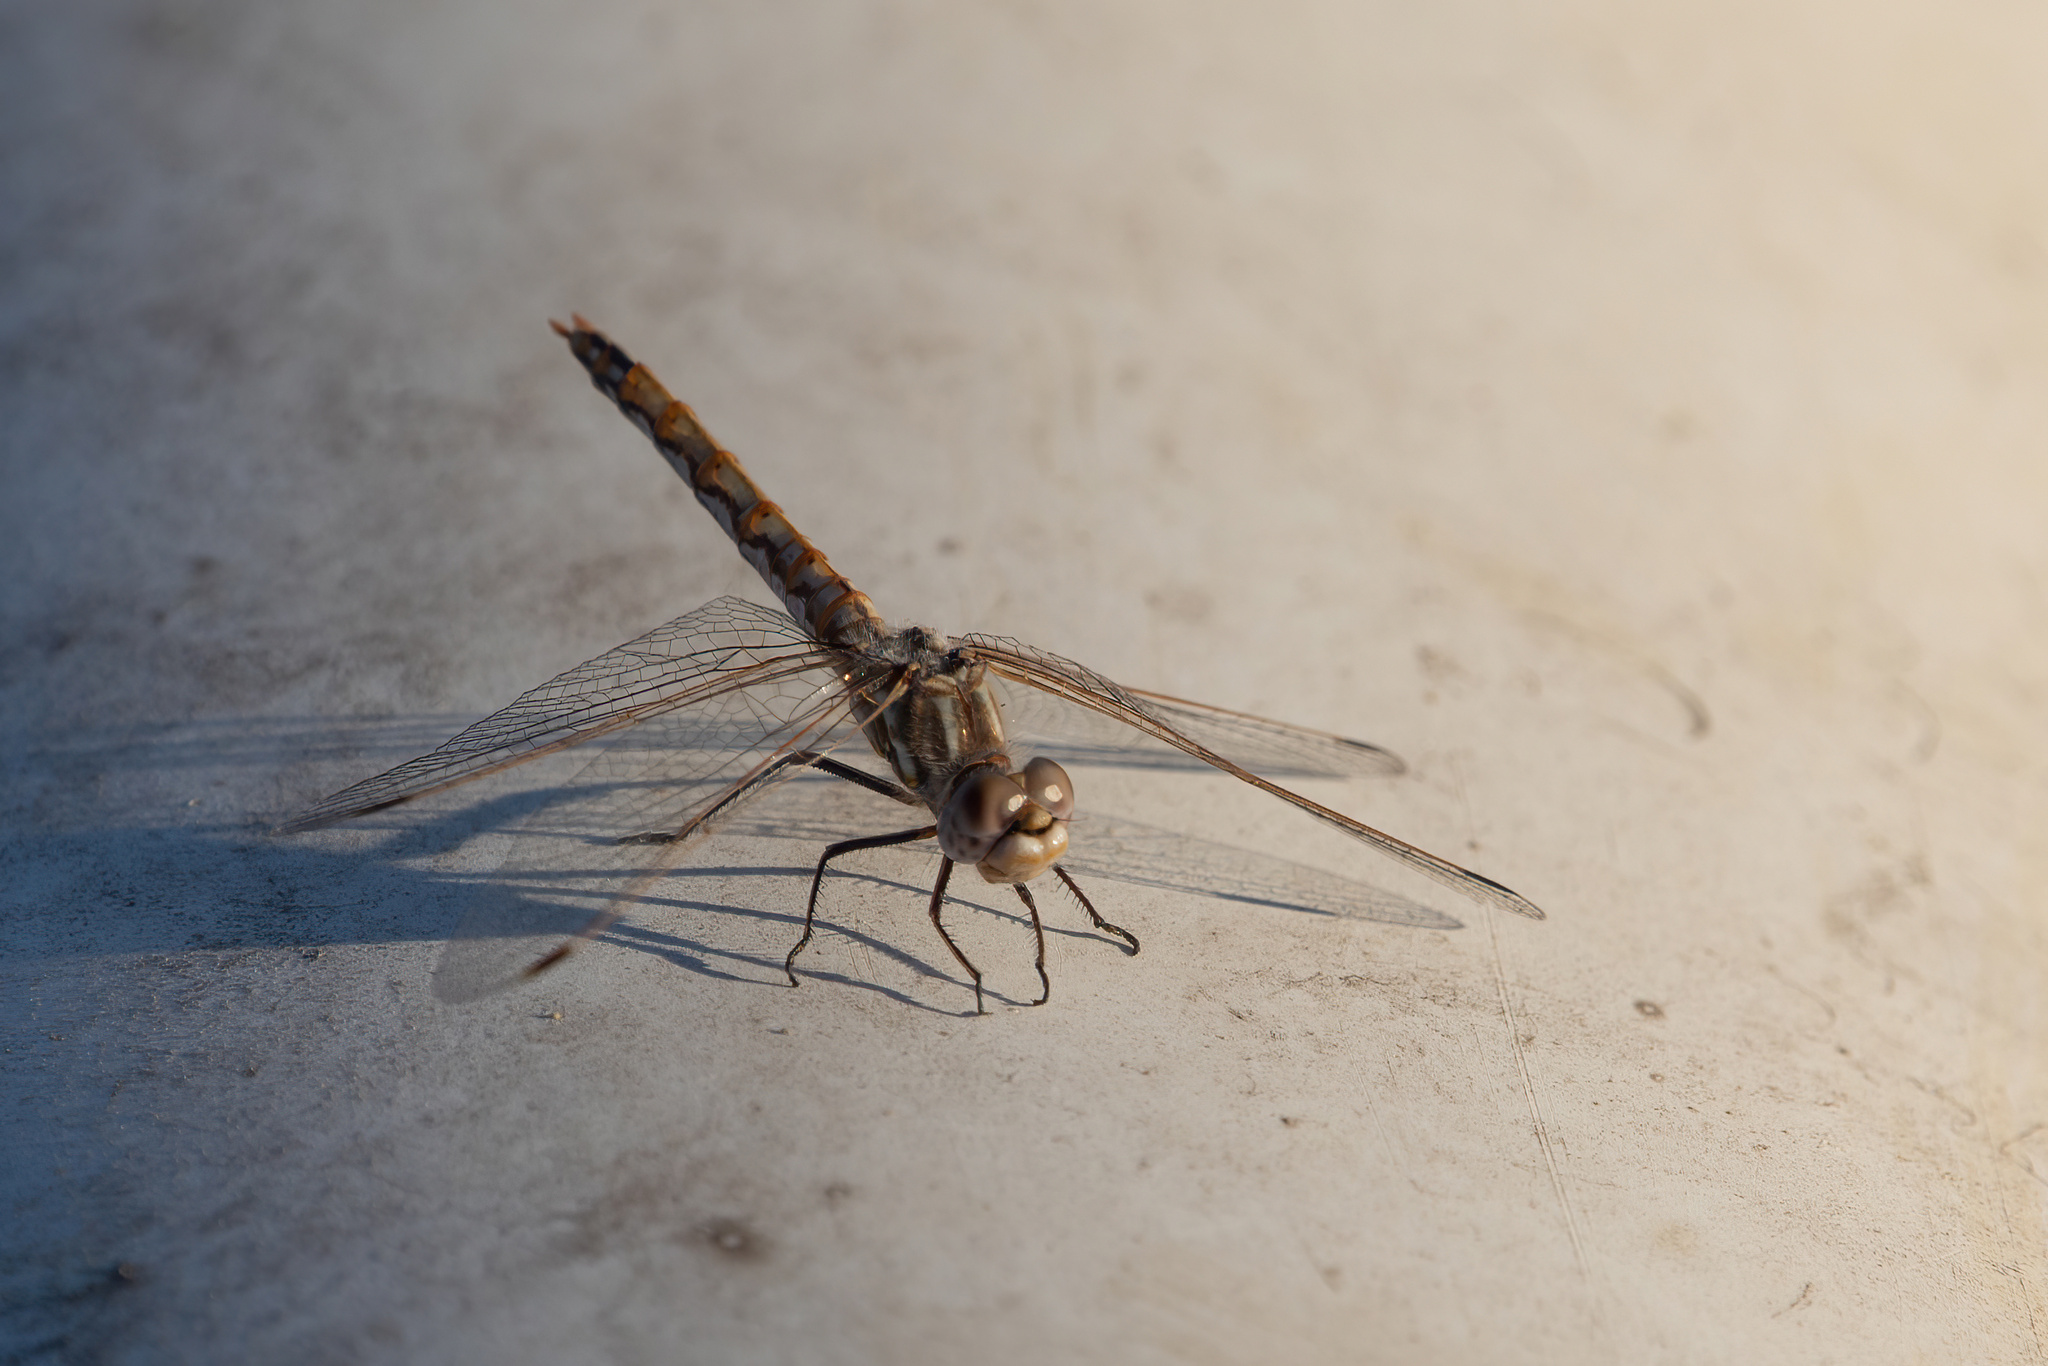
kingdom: Animalia
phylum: Arthropoda
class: Insecta
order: Odonata
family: Libellulidae
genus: Sympetrum
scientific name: Sympetrum corruptum
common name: Variegated meadowhawk
